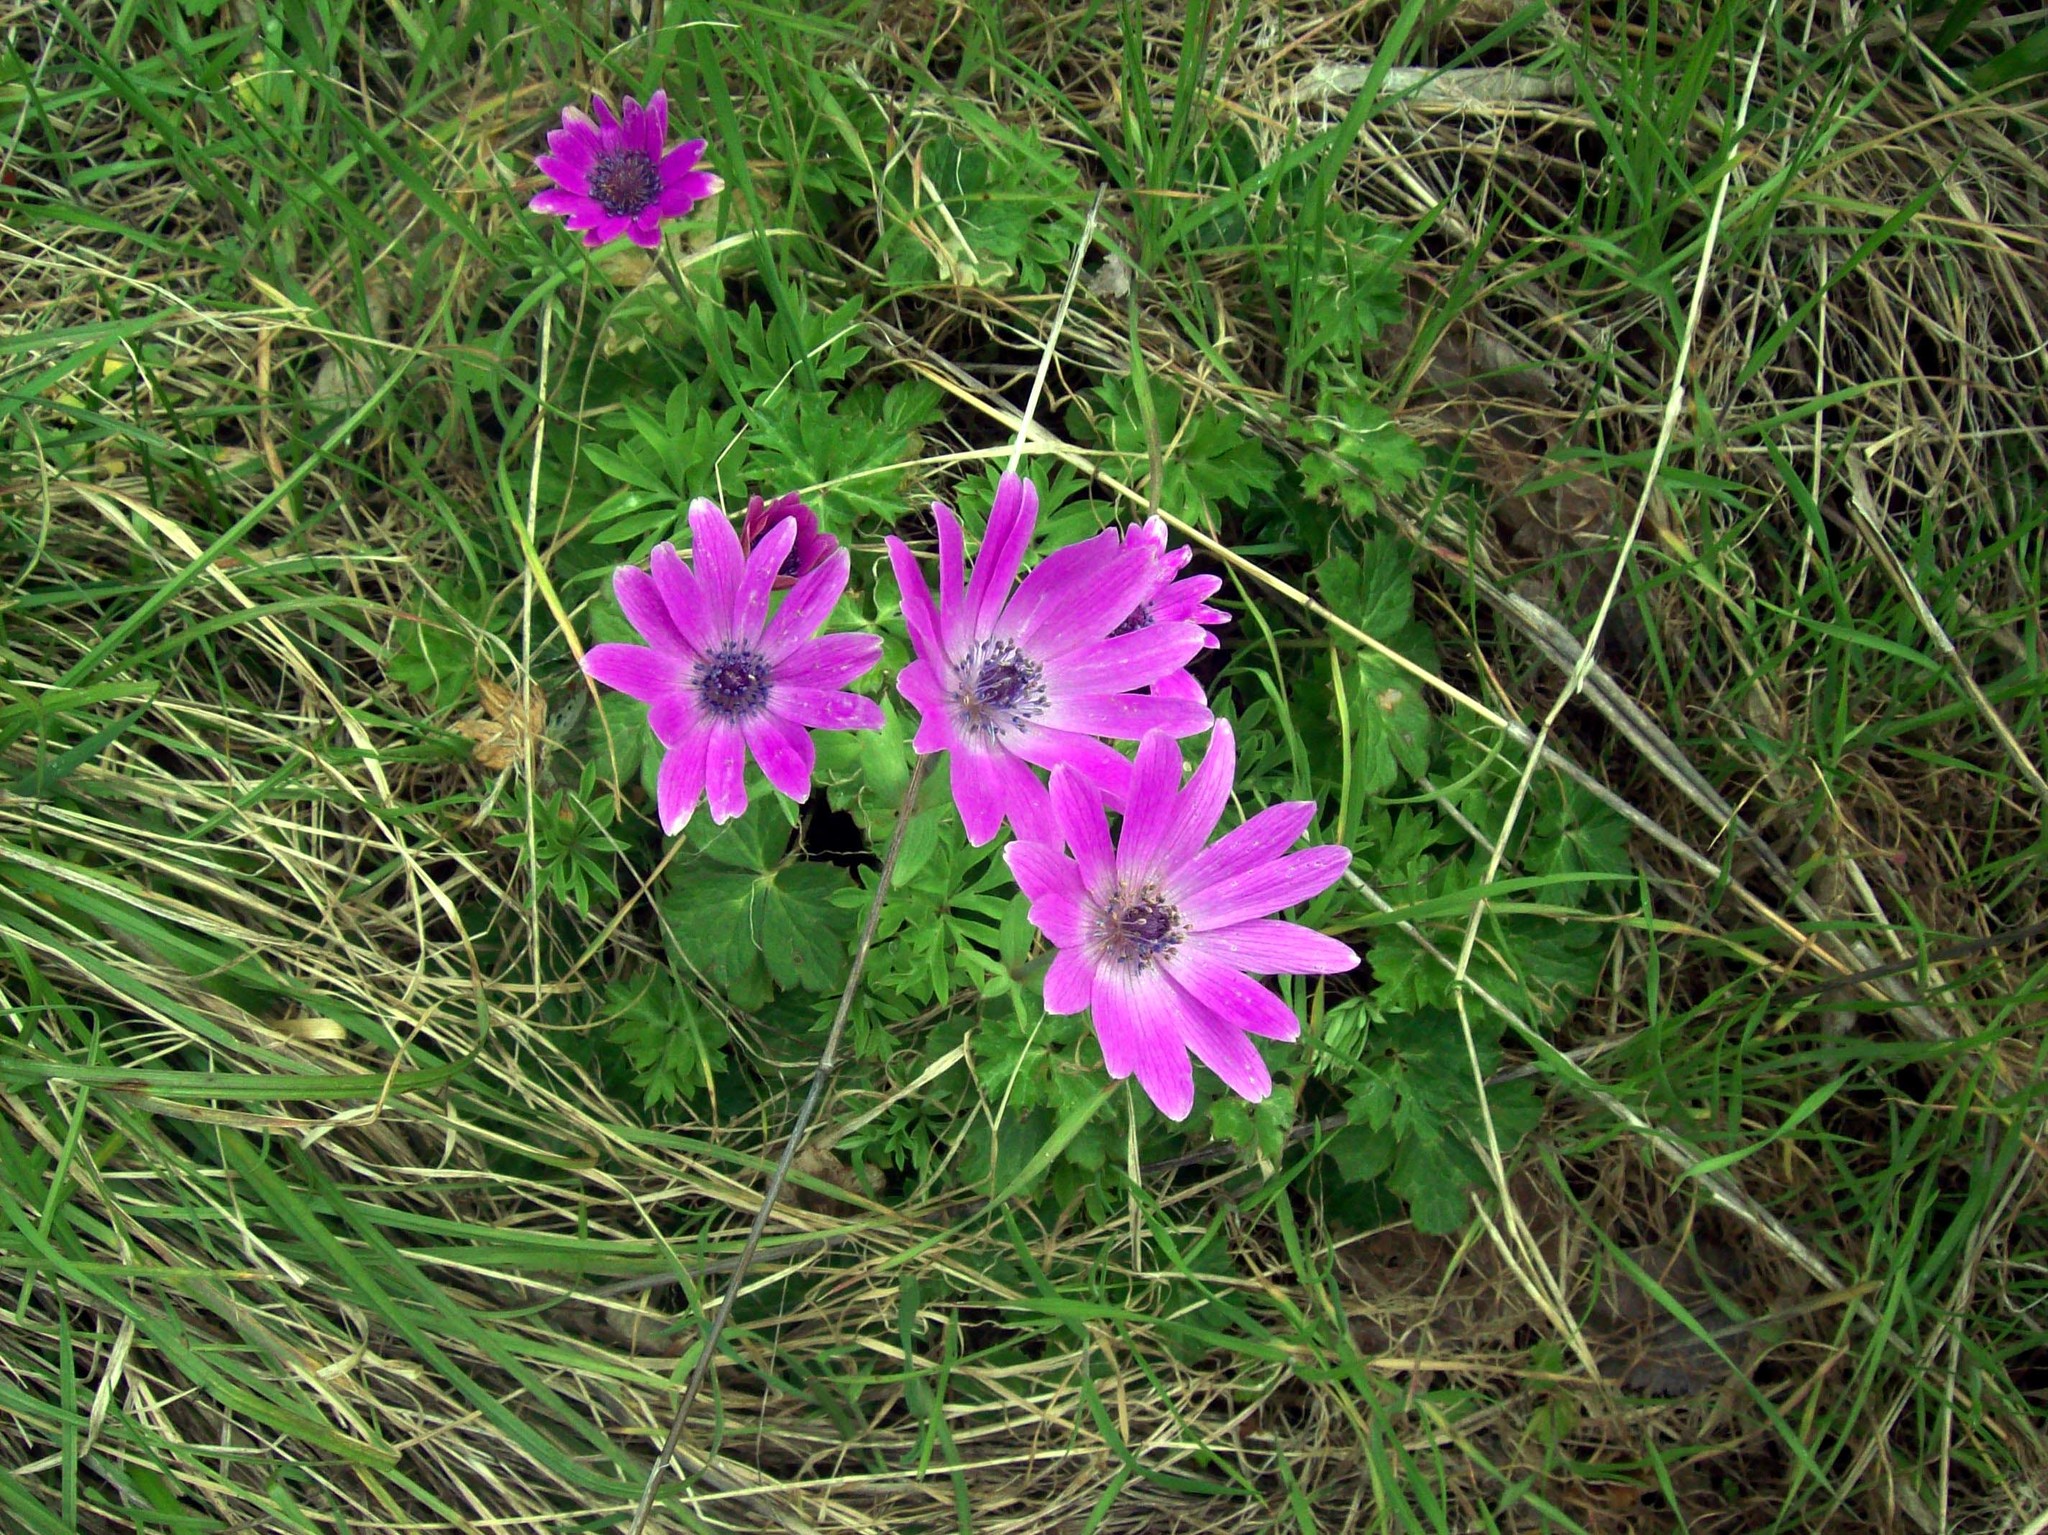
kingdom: Plantae
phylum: Tracheophyta
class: Magnoliopsida
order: Ranunculales
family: Ranunculaceae
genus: Anemone
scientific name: Anemone coronaria
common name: Poppy anemone
